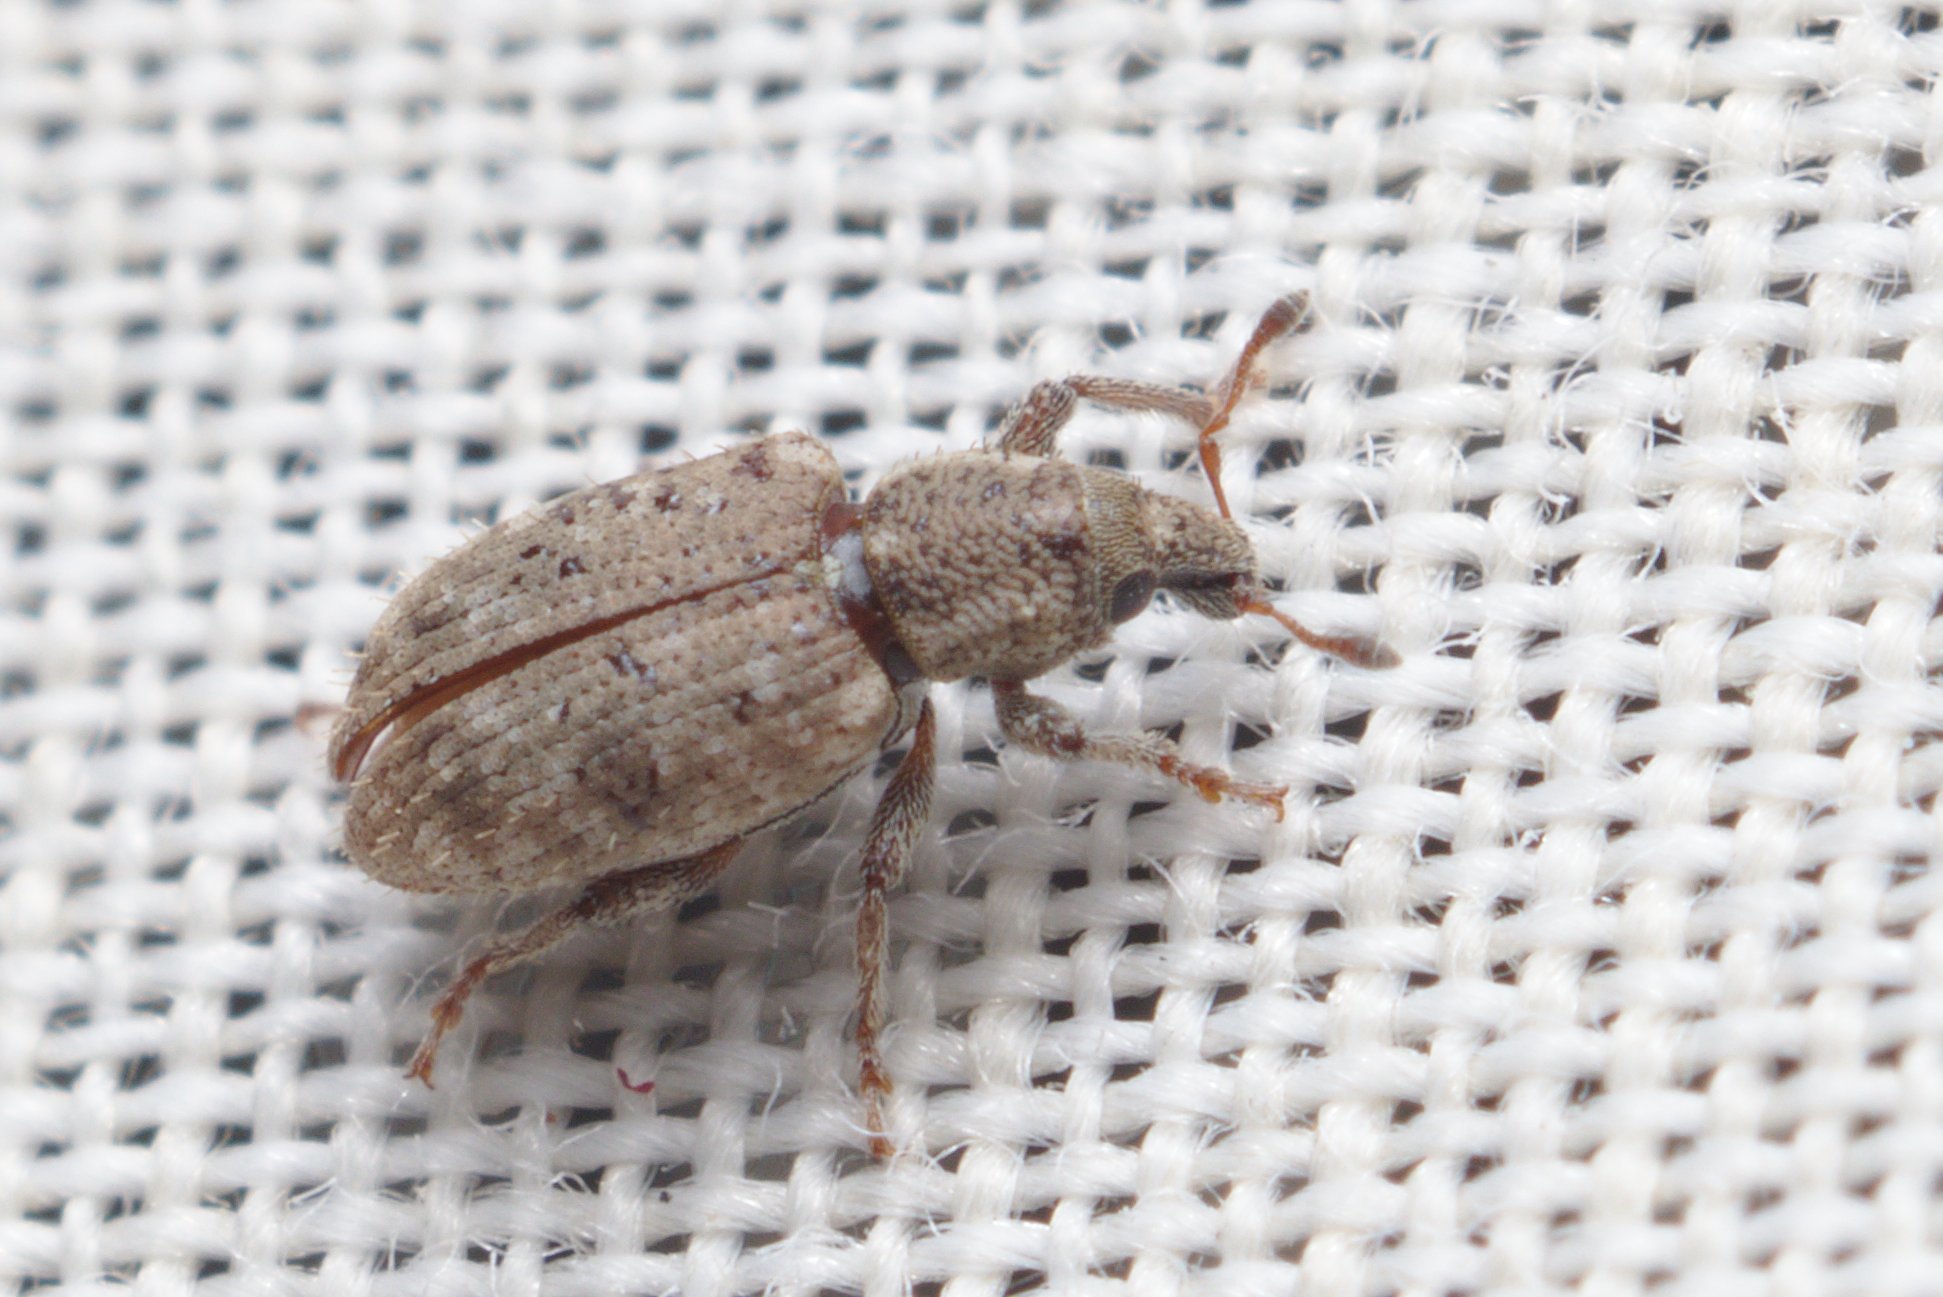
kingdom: Animalia
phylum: Arthropoda
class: Insecta
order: Coleoptera
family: Curculionidae
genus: Listronotus
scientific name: Listronotus bonariensis
